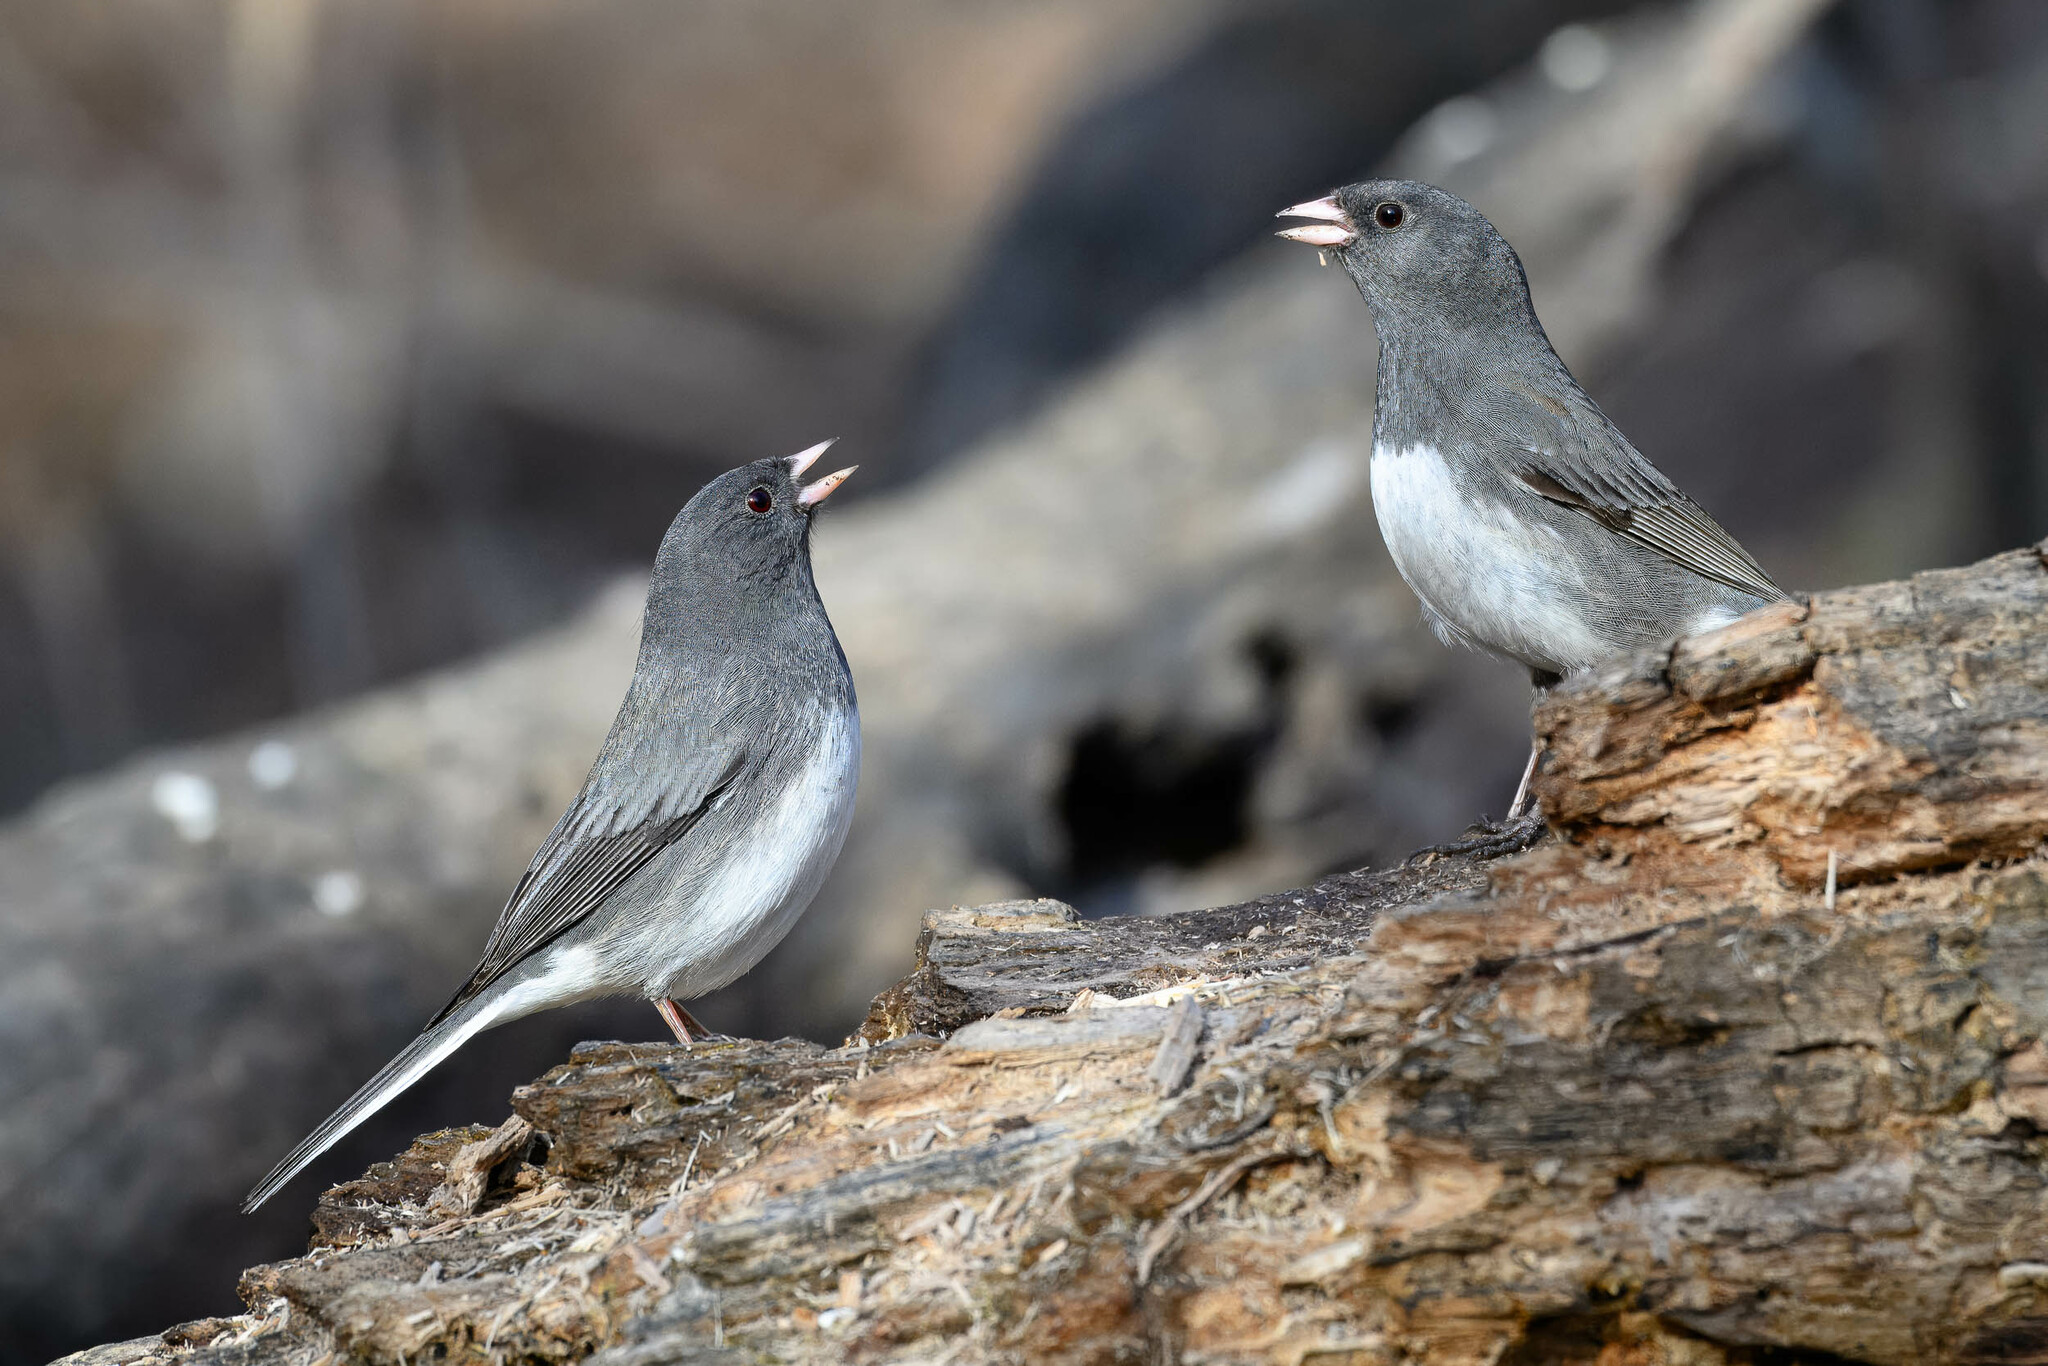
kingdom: Animalia
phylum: Chordata
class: Aves
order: Passeriformes
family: Passerellidae
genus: Junco
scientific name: Junco hyemalis
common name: Dark-eyed junco
